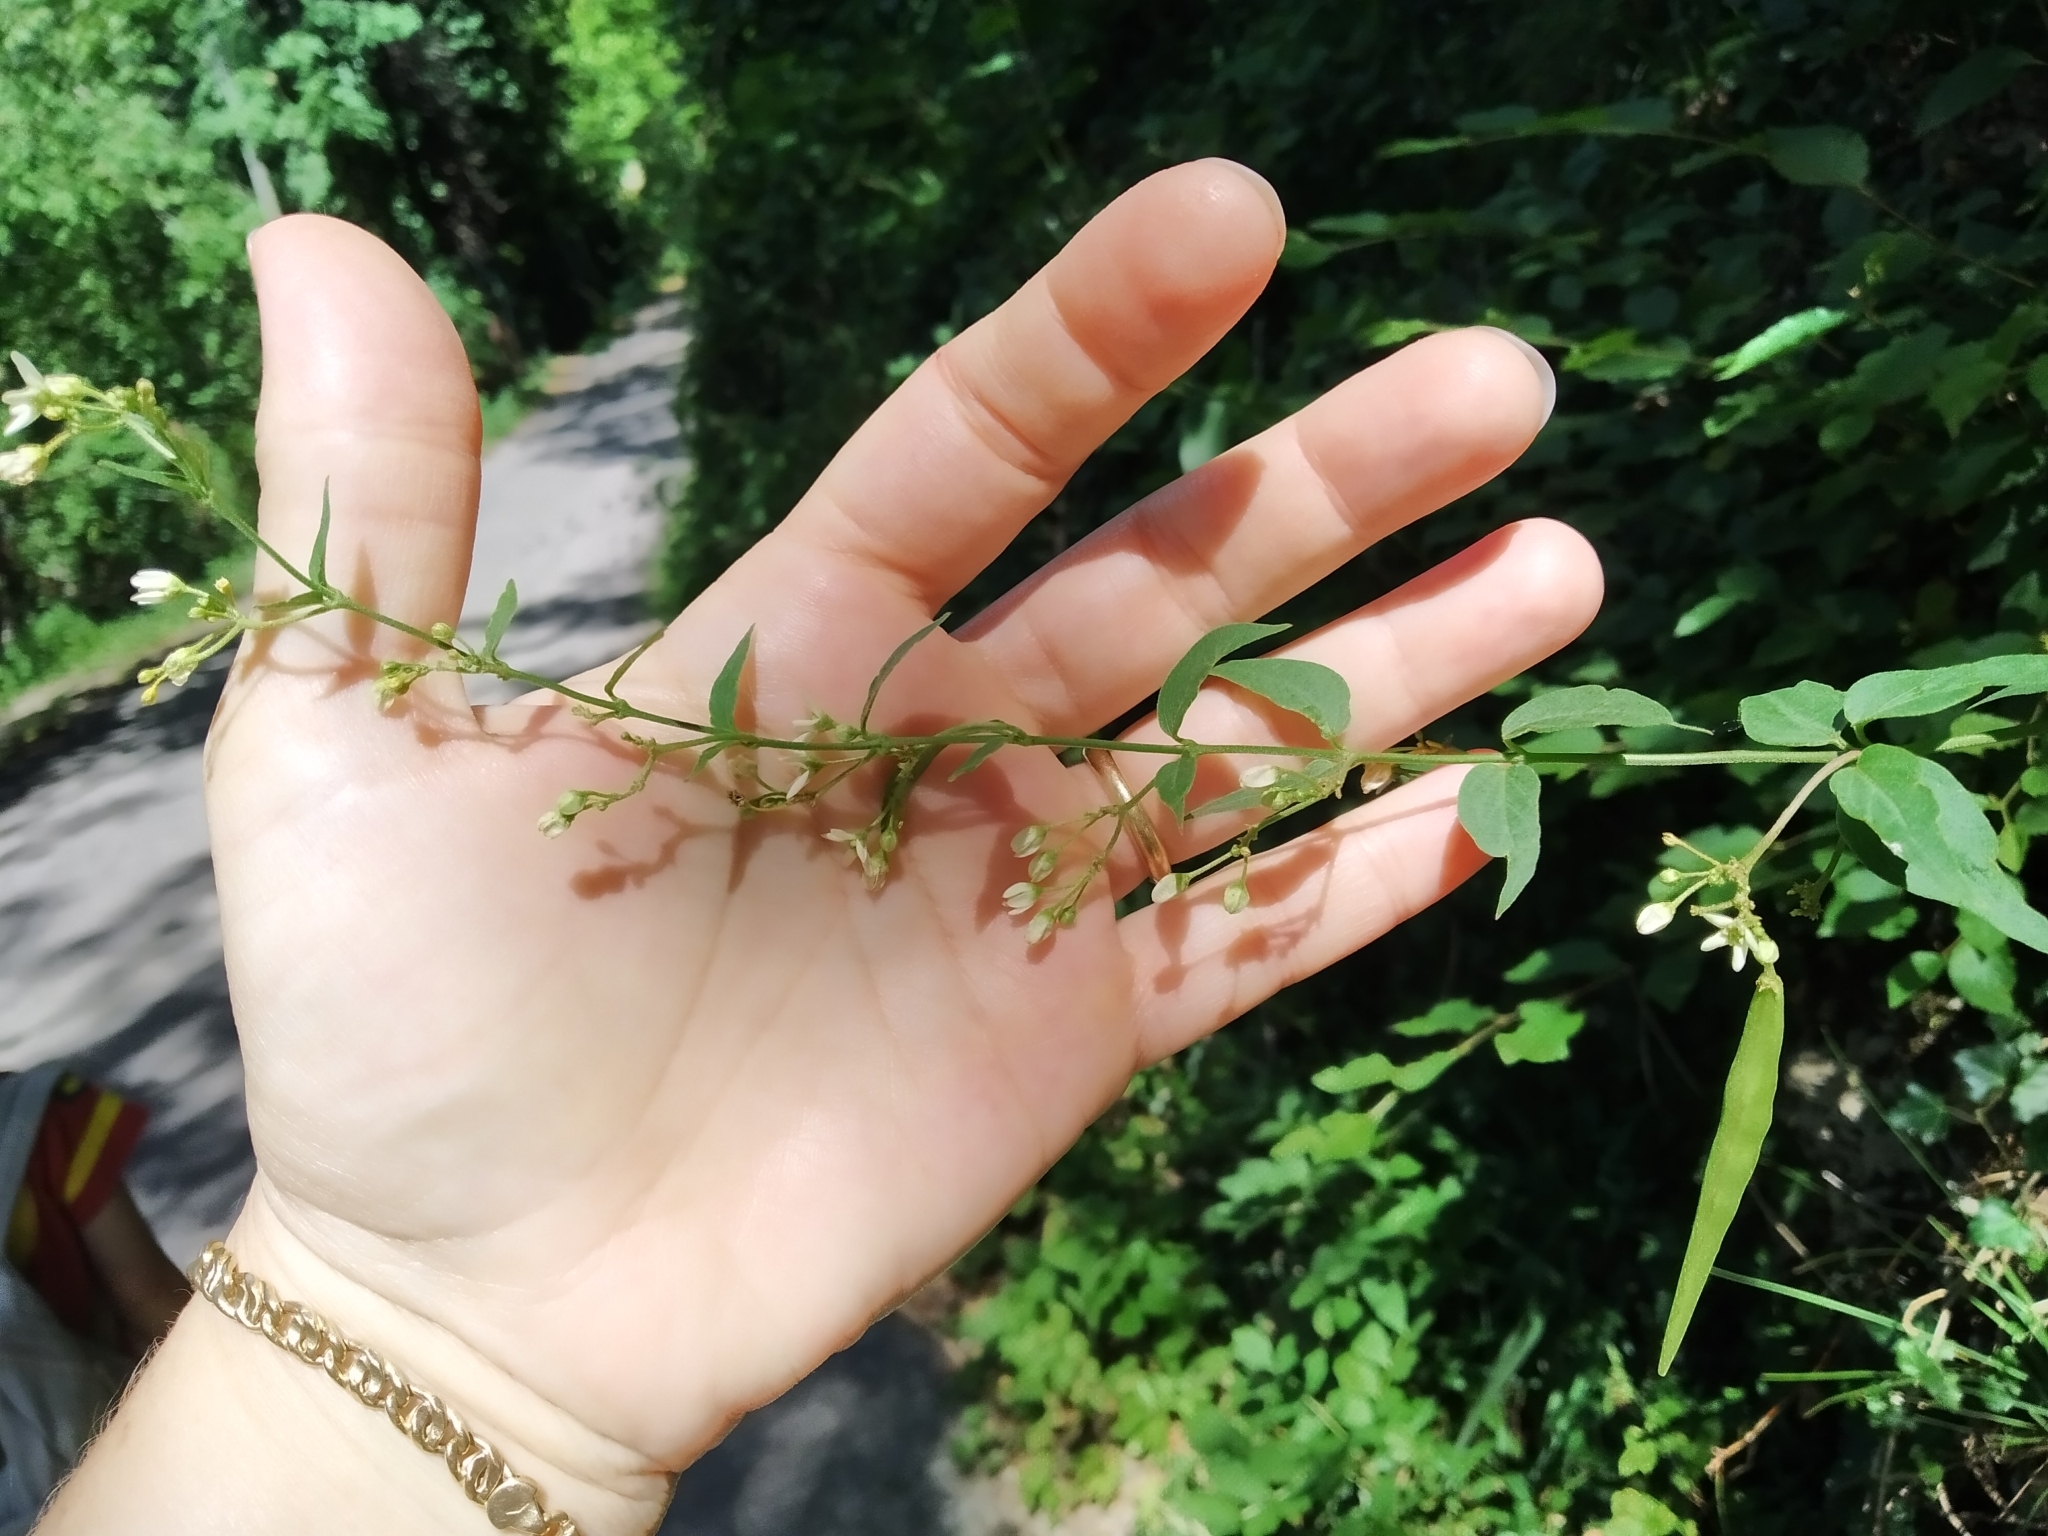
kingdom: Plantae
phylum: Tracheophyta
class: Magnoliopsida
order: Gentianales
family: Apocynaceae
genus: Vincetoxicum
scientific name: Vincetoxicum hirundinaria
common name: White swallowwort
